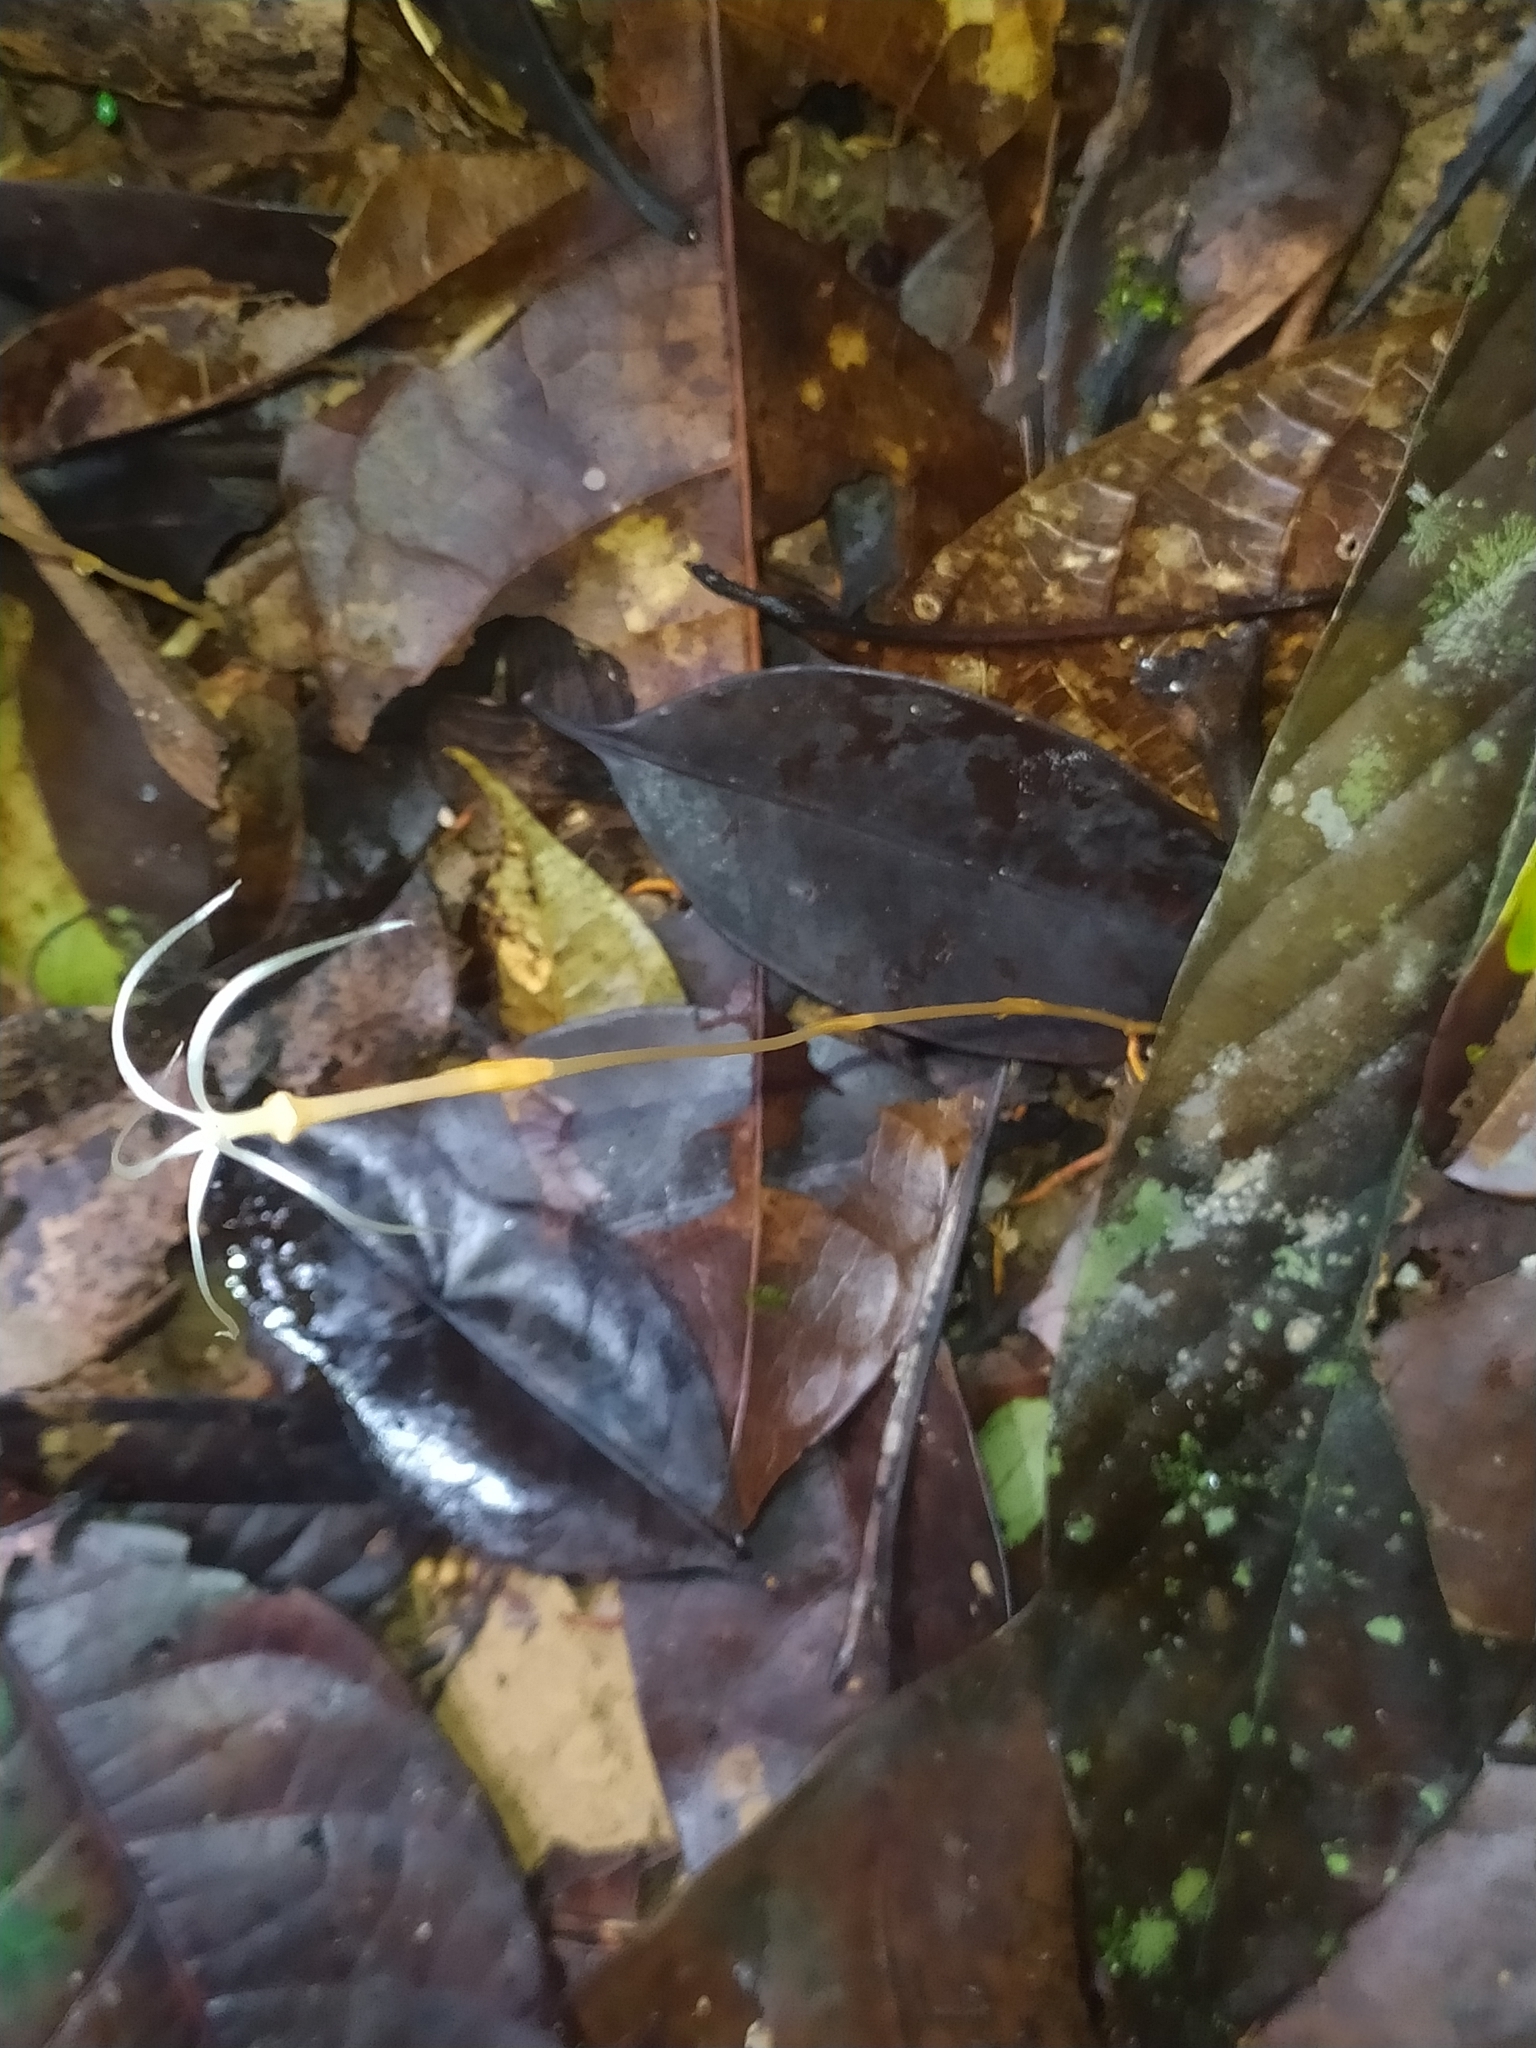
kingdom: Plantae
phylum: Tracheophyta
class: Magnoliopsida
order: Gentianales
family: Gentianaceae
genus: Voyria
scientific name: Voyria tenuiflora
